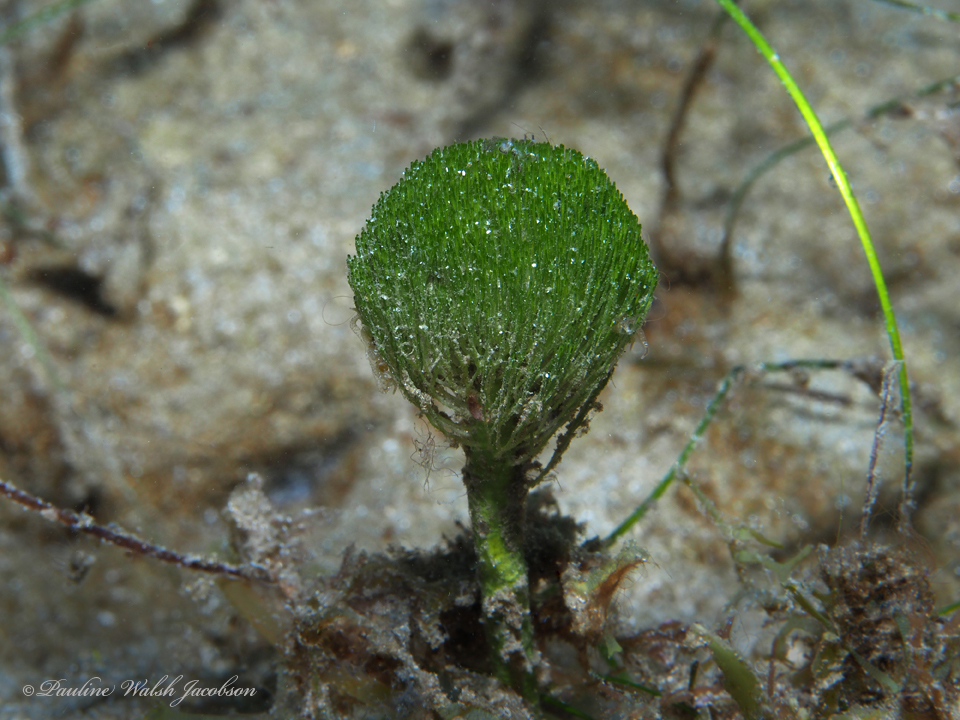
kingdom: Plantae
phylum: Chlorophyta
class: Ulvophyceae
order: Bryopsidales
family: Udoteaceae
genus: Penicillus
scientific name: Penicillus dumetosus
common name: Bristle ball bush
